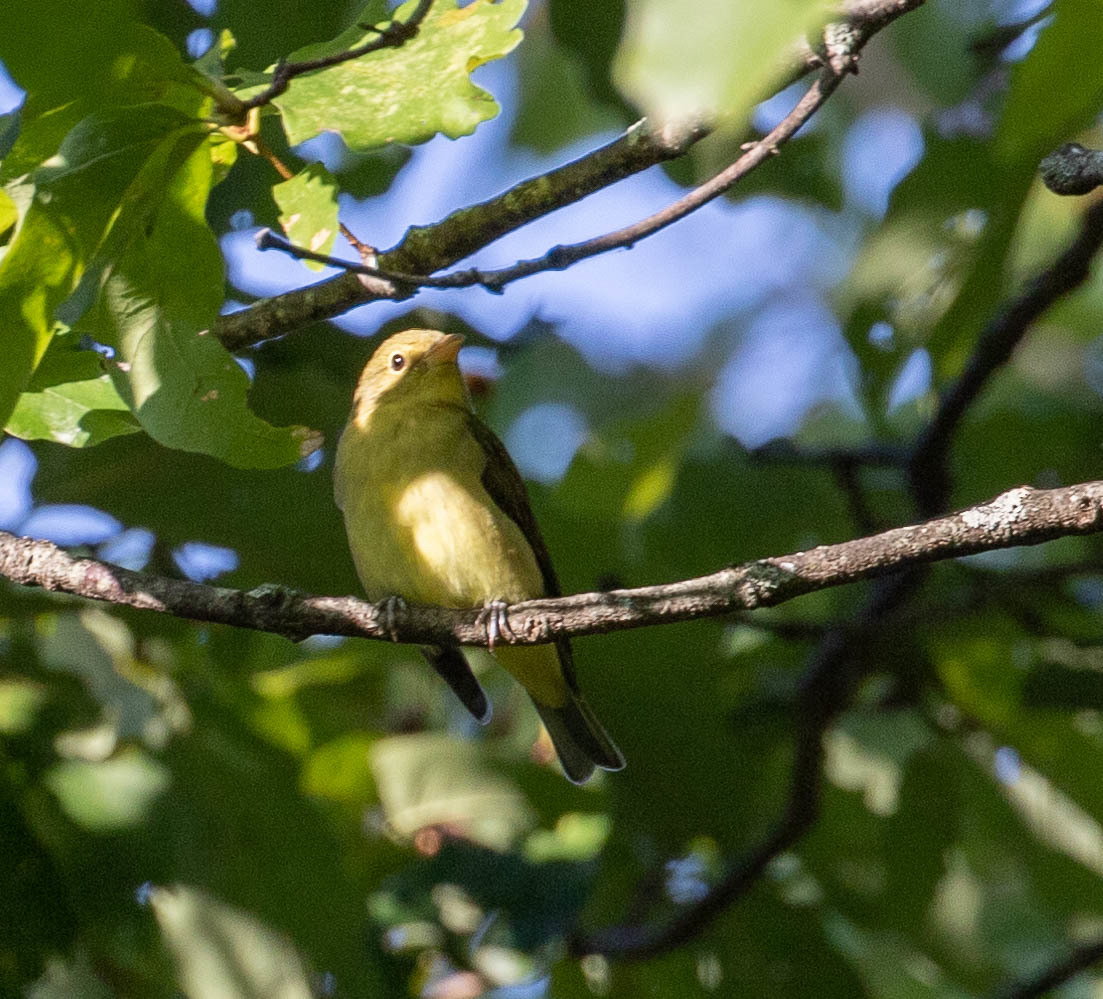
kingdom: Animalia
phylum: Chordata
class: Aves
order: Passeriformes
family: Cardinalidae
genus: Piranga
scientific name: Piranga olivacea
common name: Scarlet tanager
